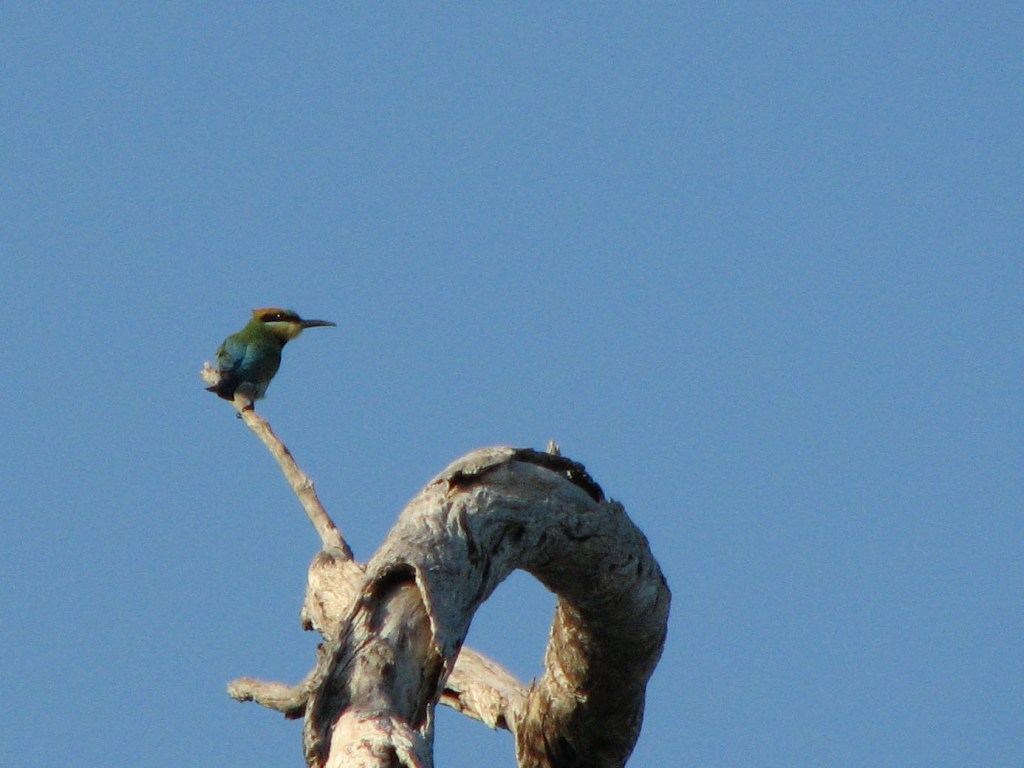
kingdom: Animalia
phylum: Chordata
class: Aves
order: Coraciiformes
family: Meropidae
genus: Merops
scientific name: Merops ornatus
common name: Rainbow bee-eater
